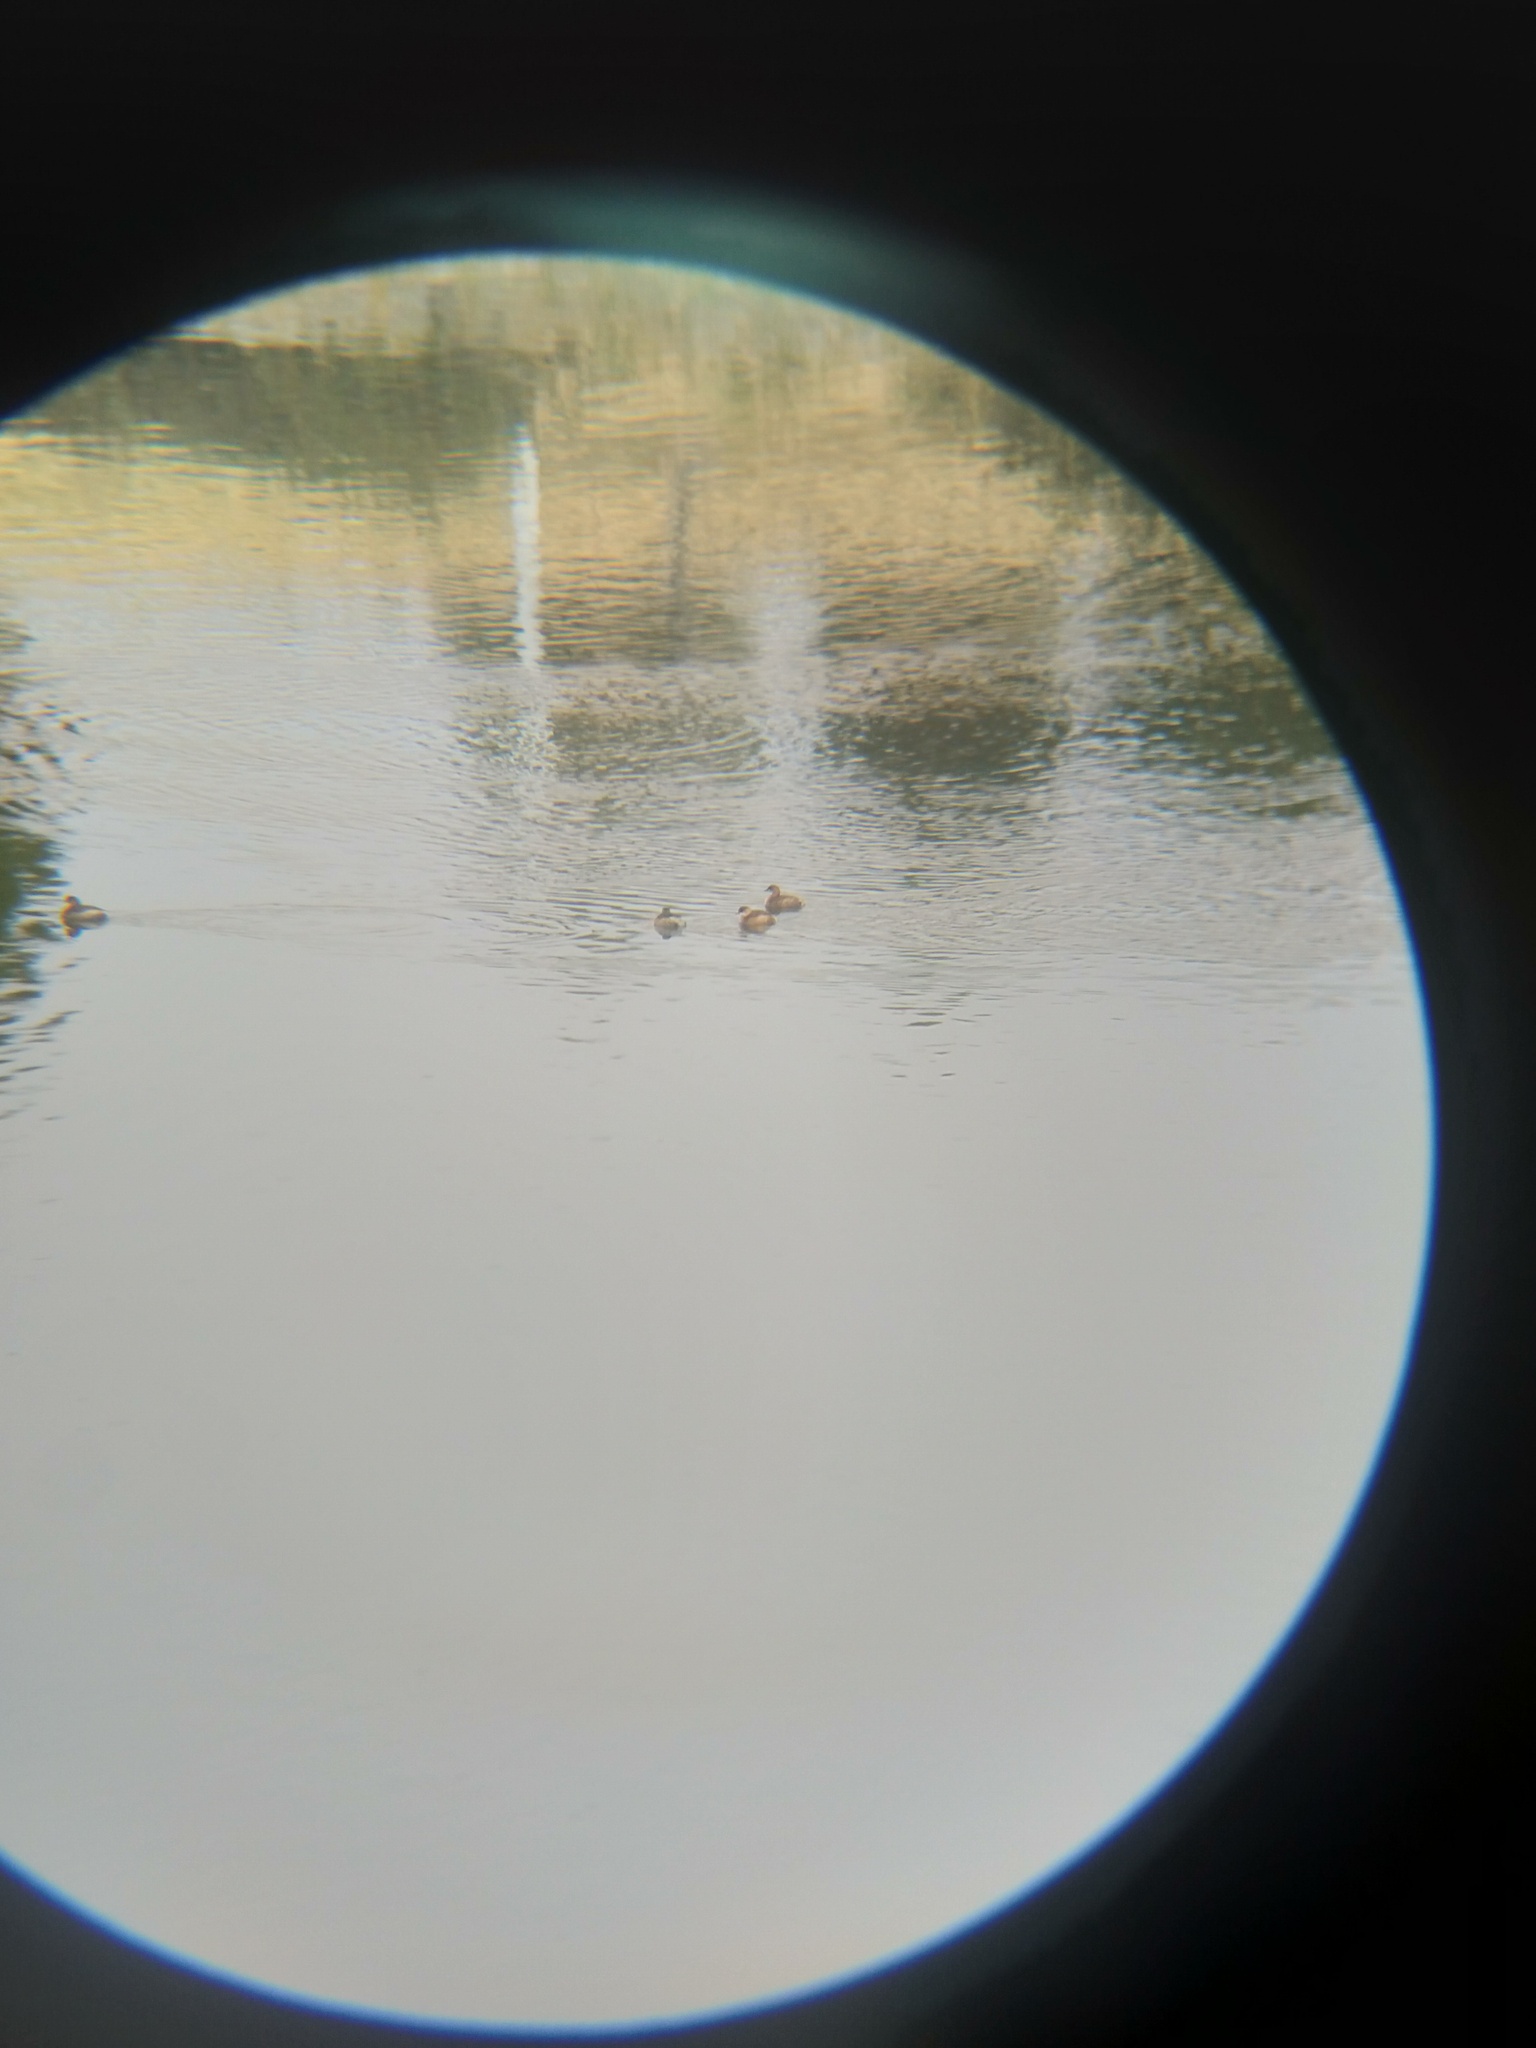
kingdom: Animalia
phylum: Chordata
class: Aves
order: Podicipediformes
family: Podicipedidae
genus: Tachybaptus
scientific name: Tachybaptus ruficollis
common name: Little grebe
